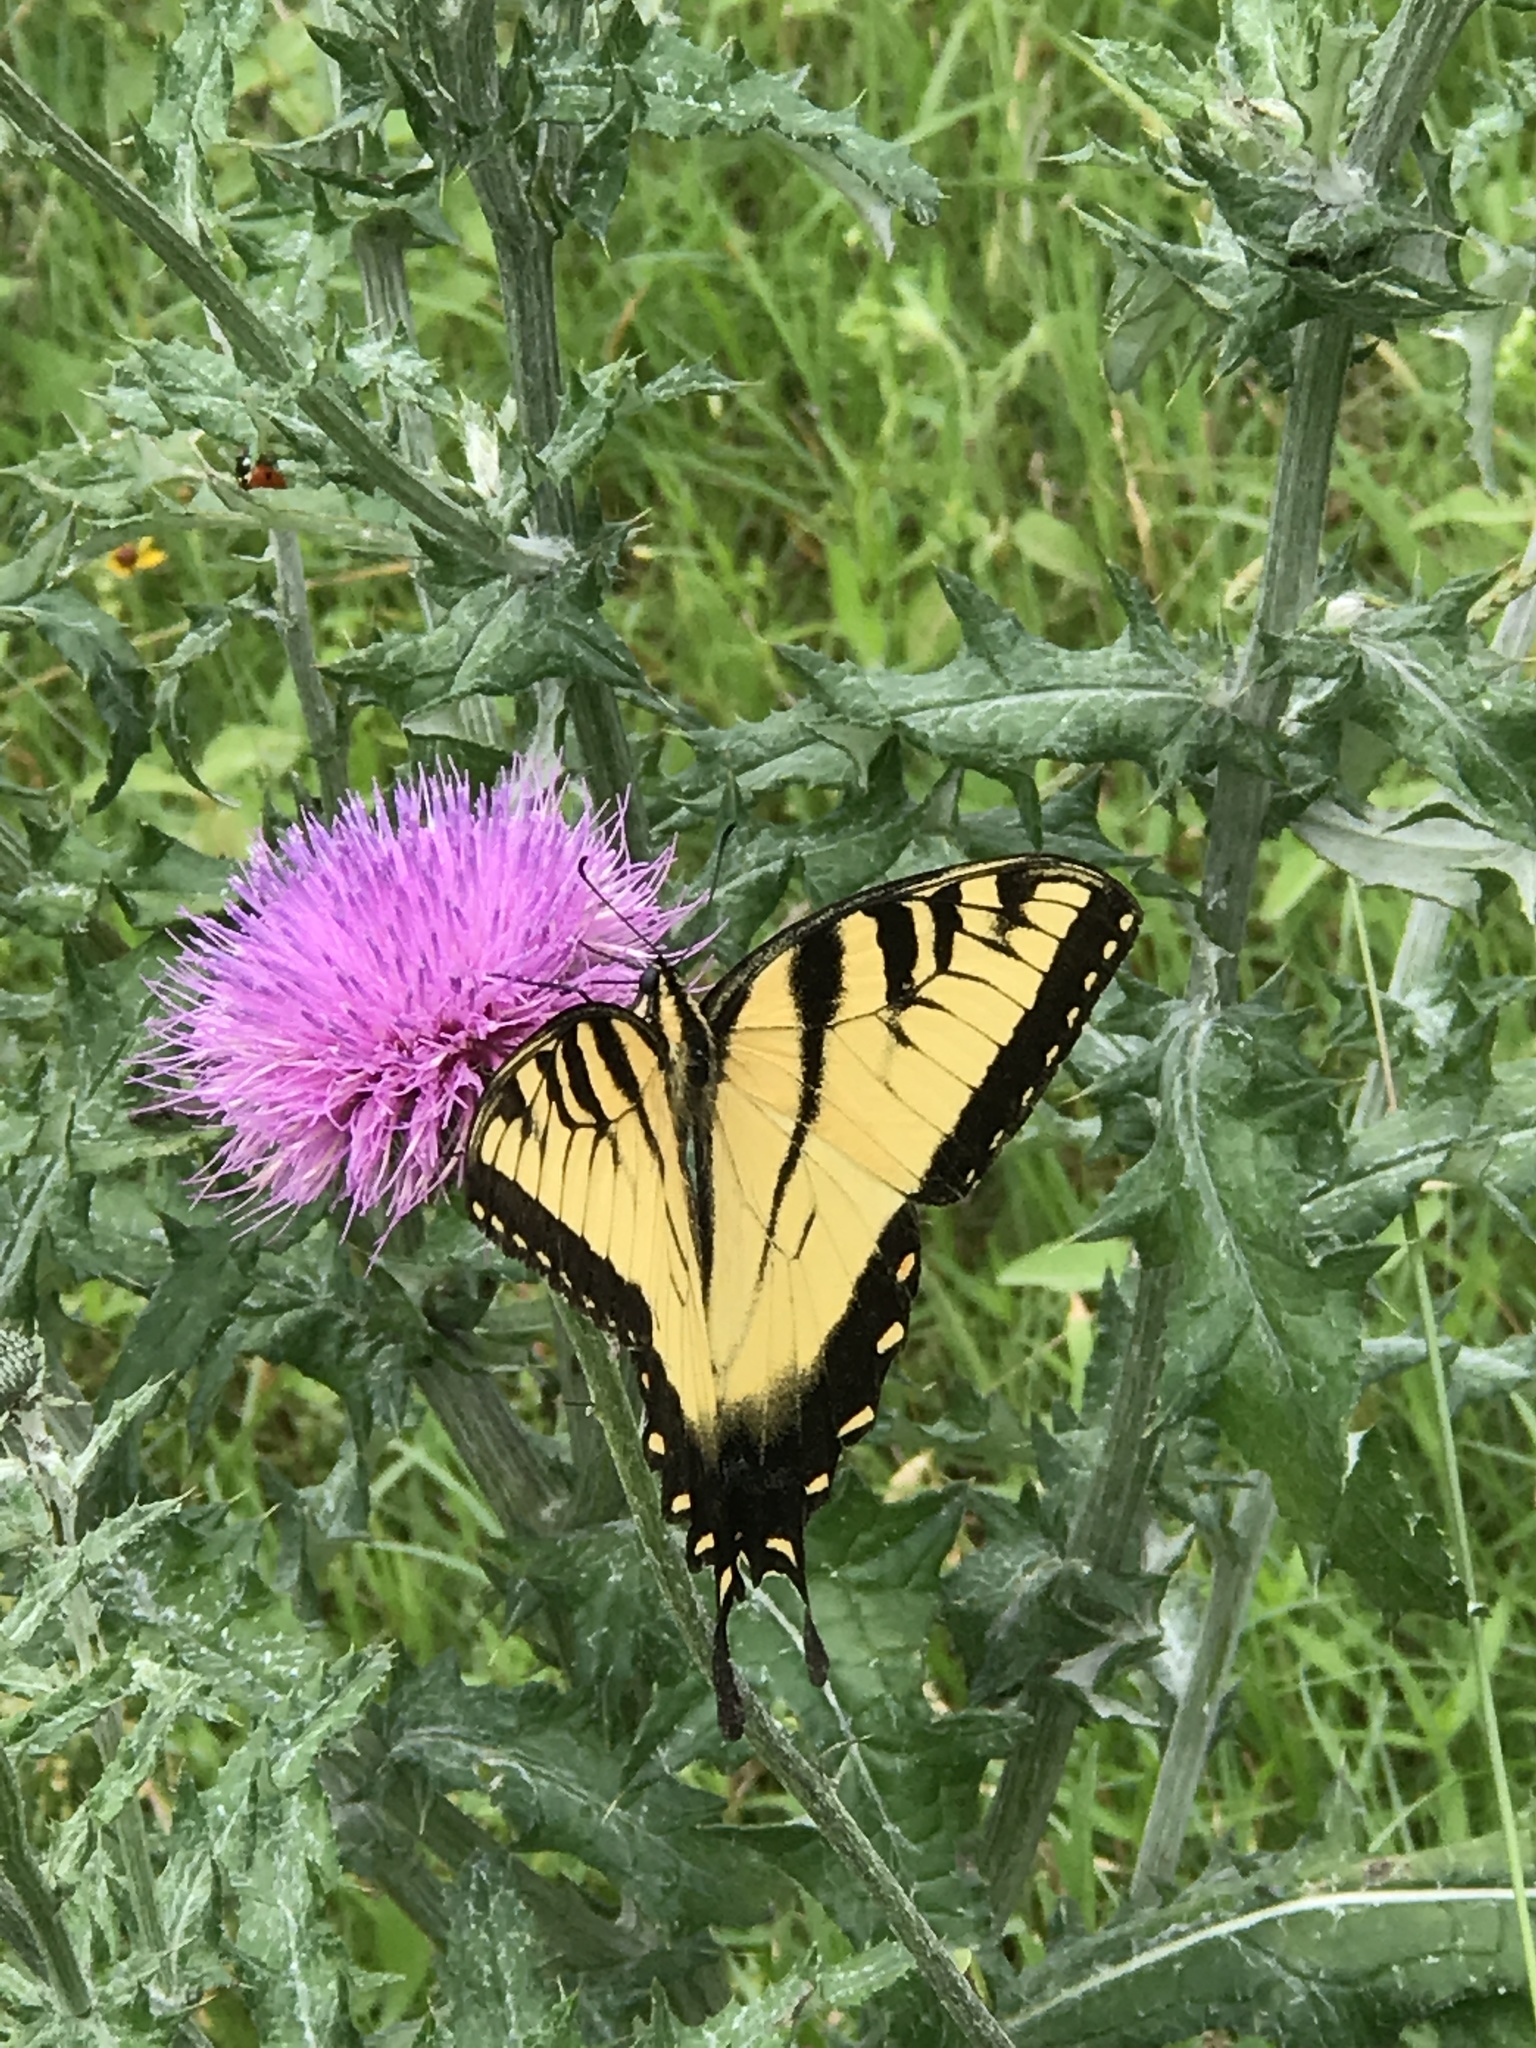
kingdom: Animalia
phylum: Arthropoda
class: Insecta
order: Lepidoptera
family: Papilionidae
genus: Papilio
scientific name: Papilio glaucus
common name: Tiger swallowtail
